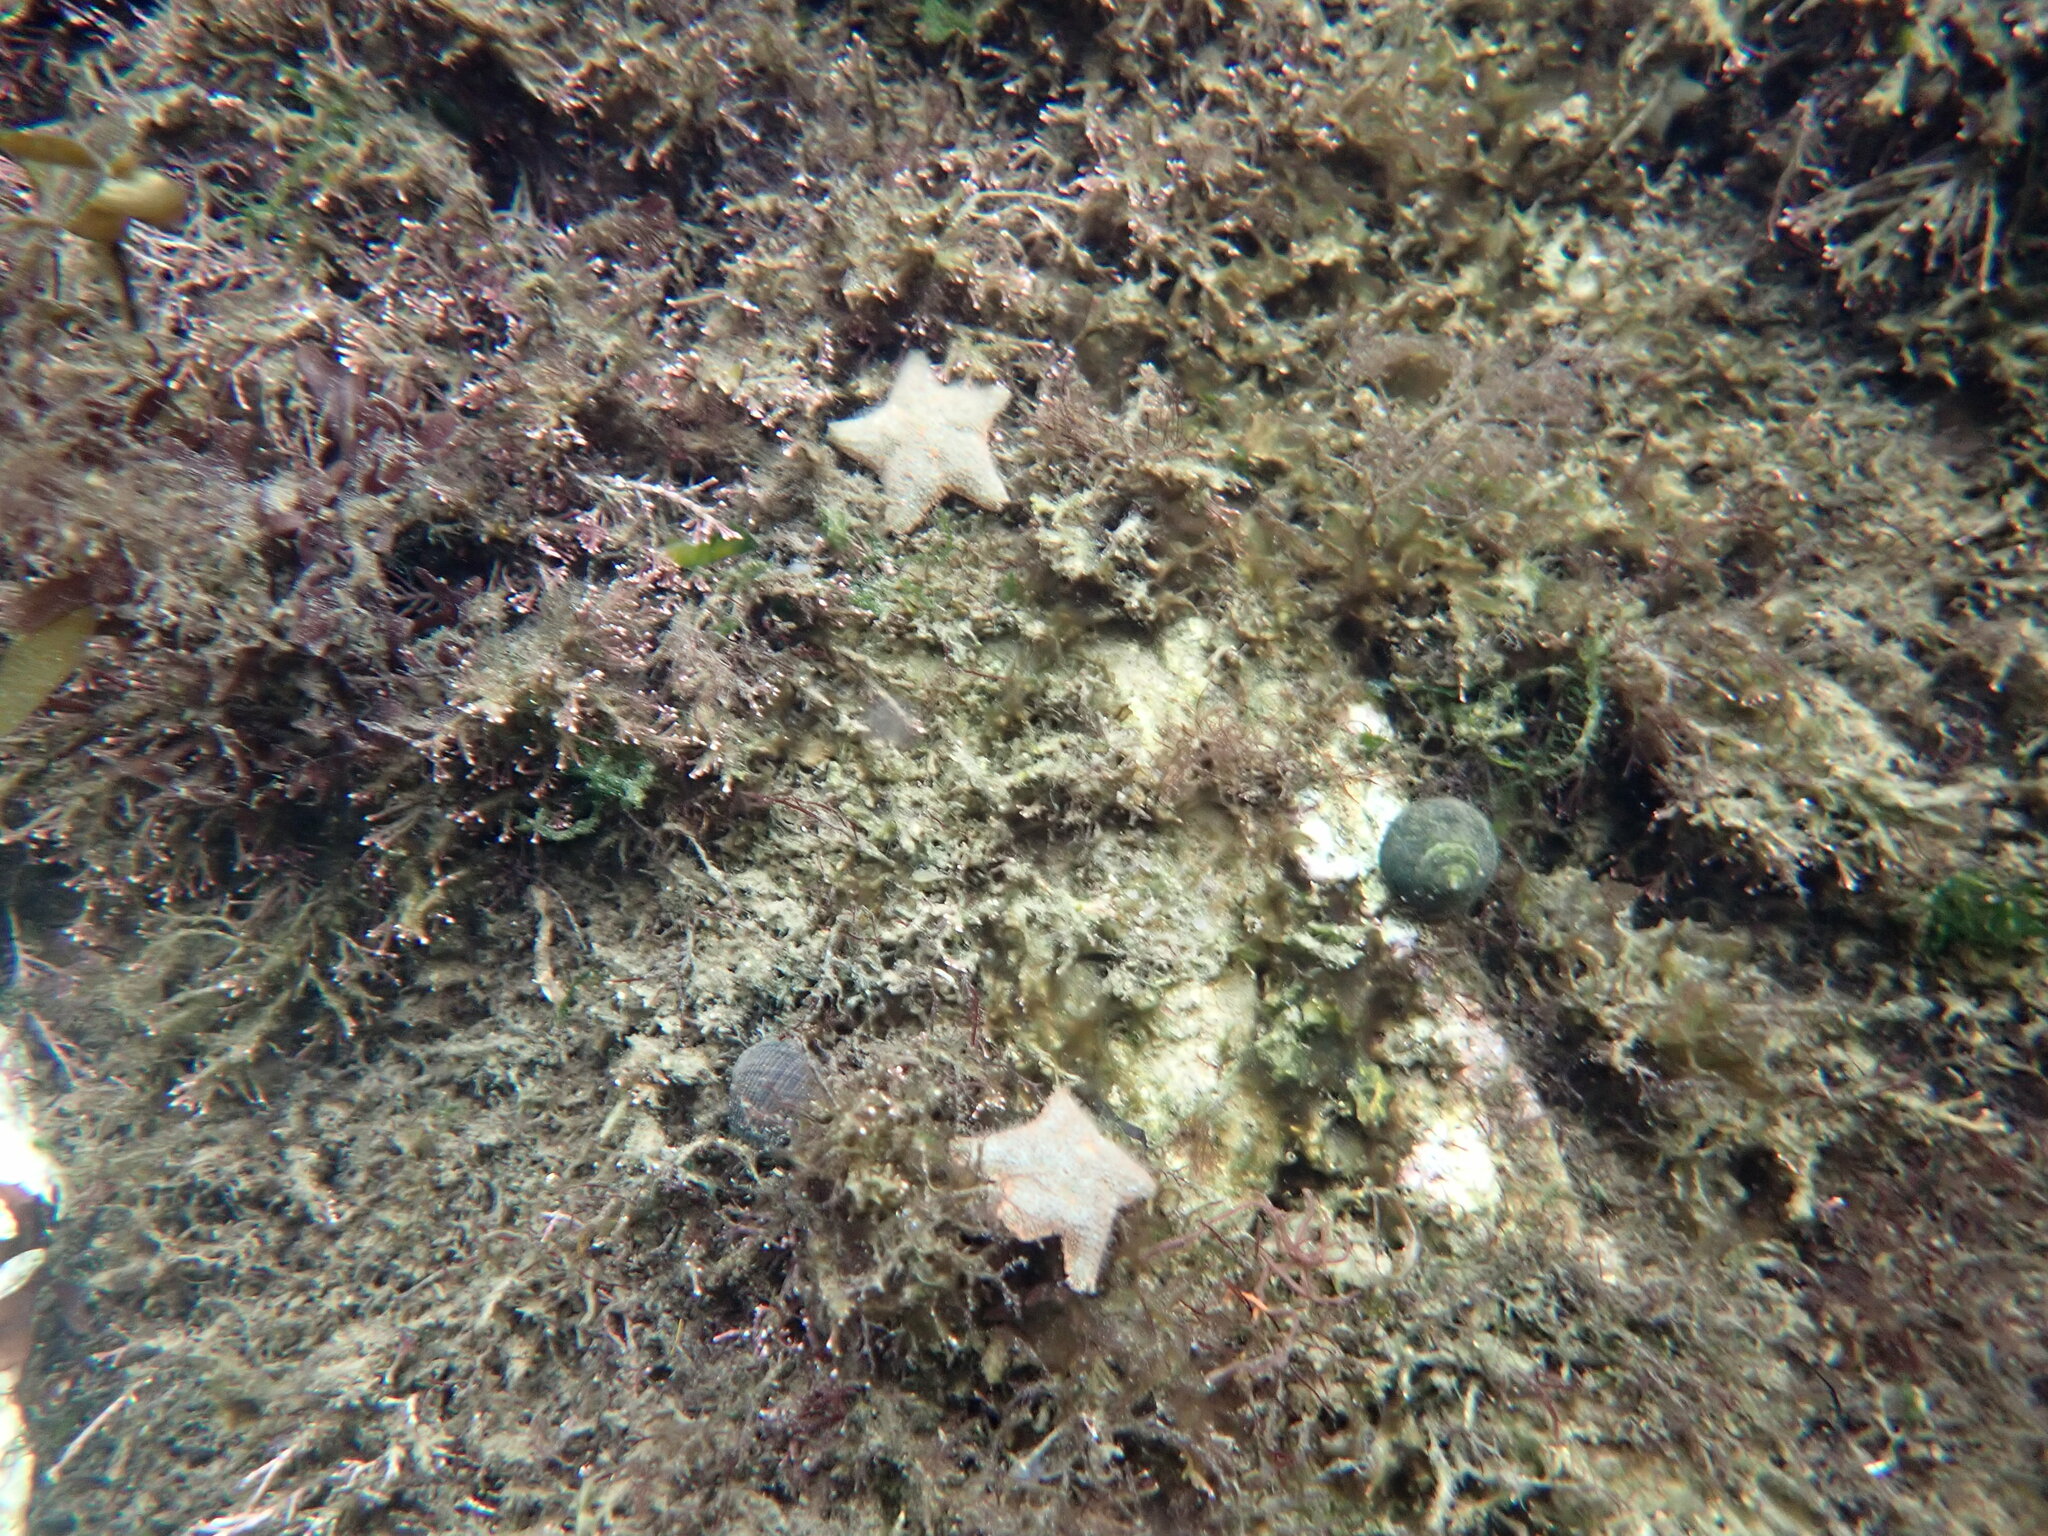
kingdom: Animalia
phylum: Echinodermata
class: Asteroidea
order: Valvatida
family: Asterinidae
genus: Asterina
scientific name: Asterina gibbosa
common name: Cushion star
